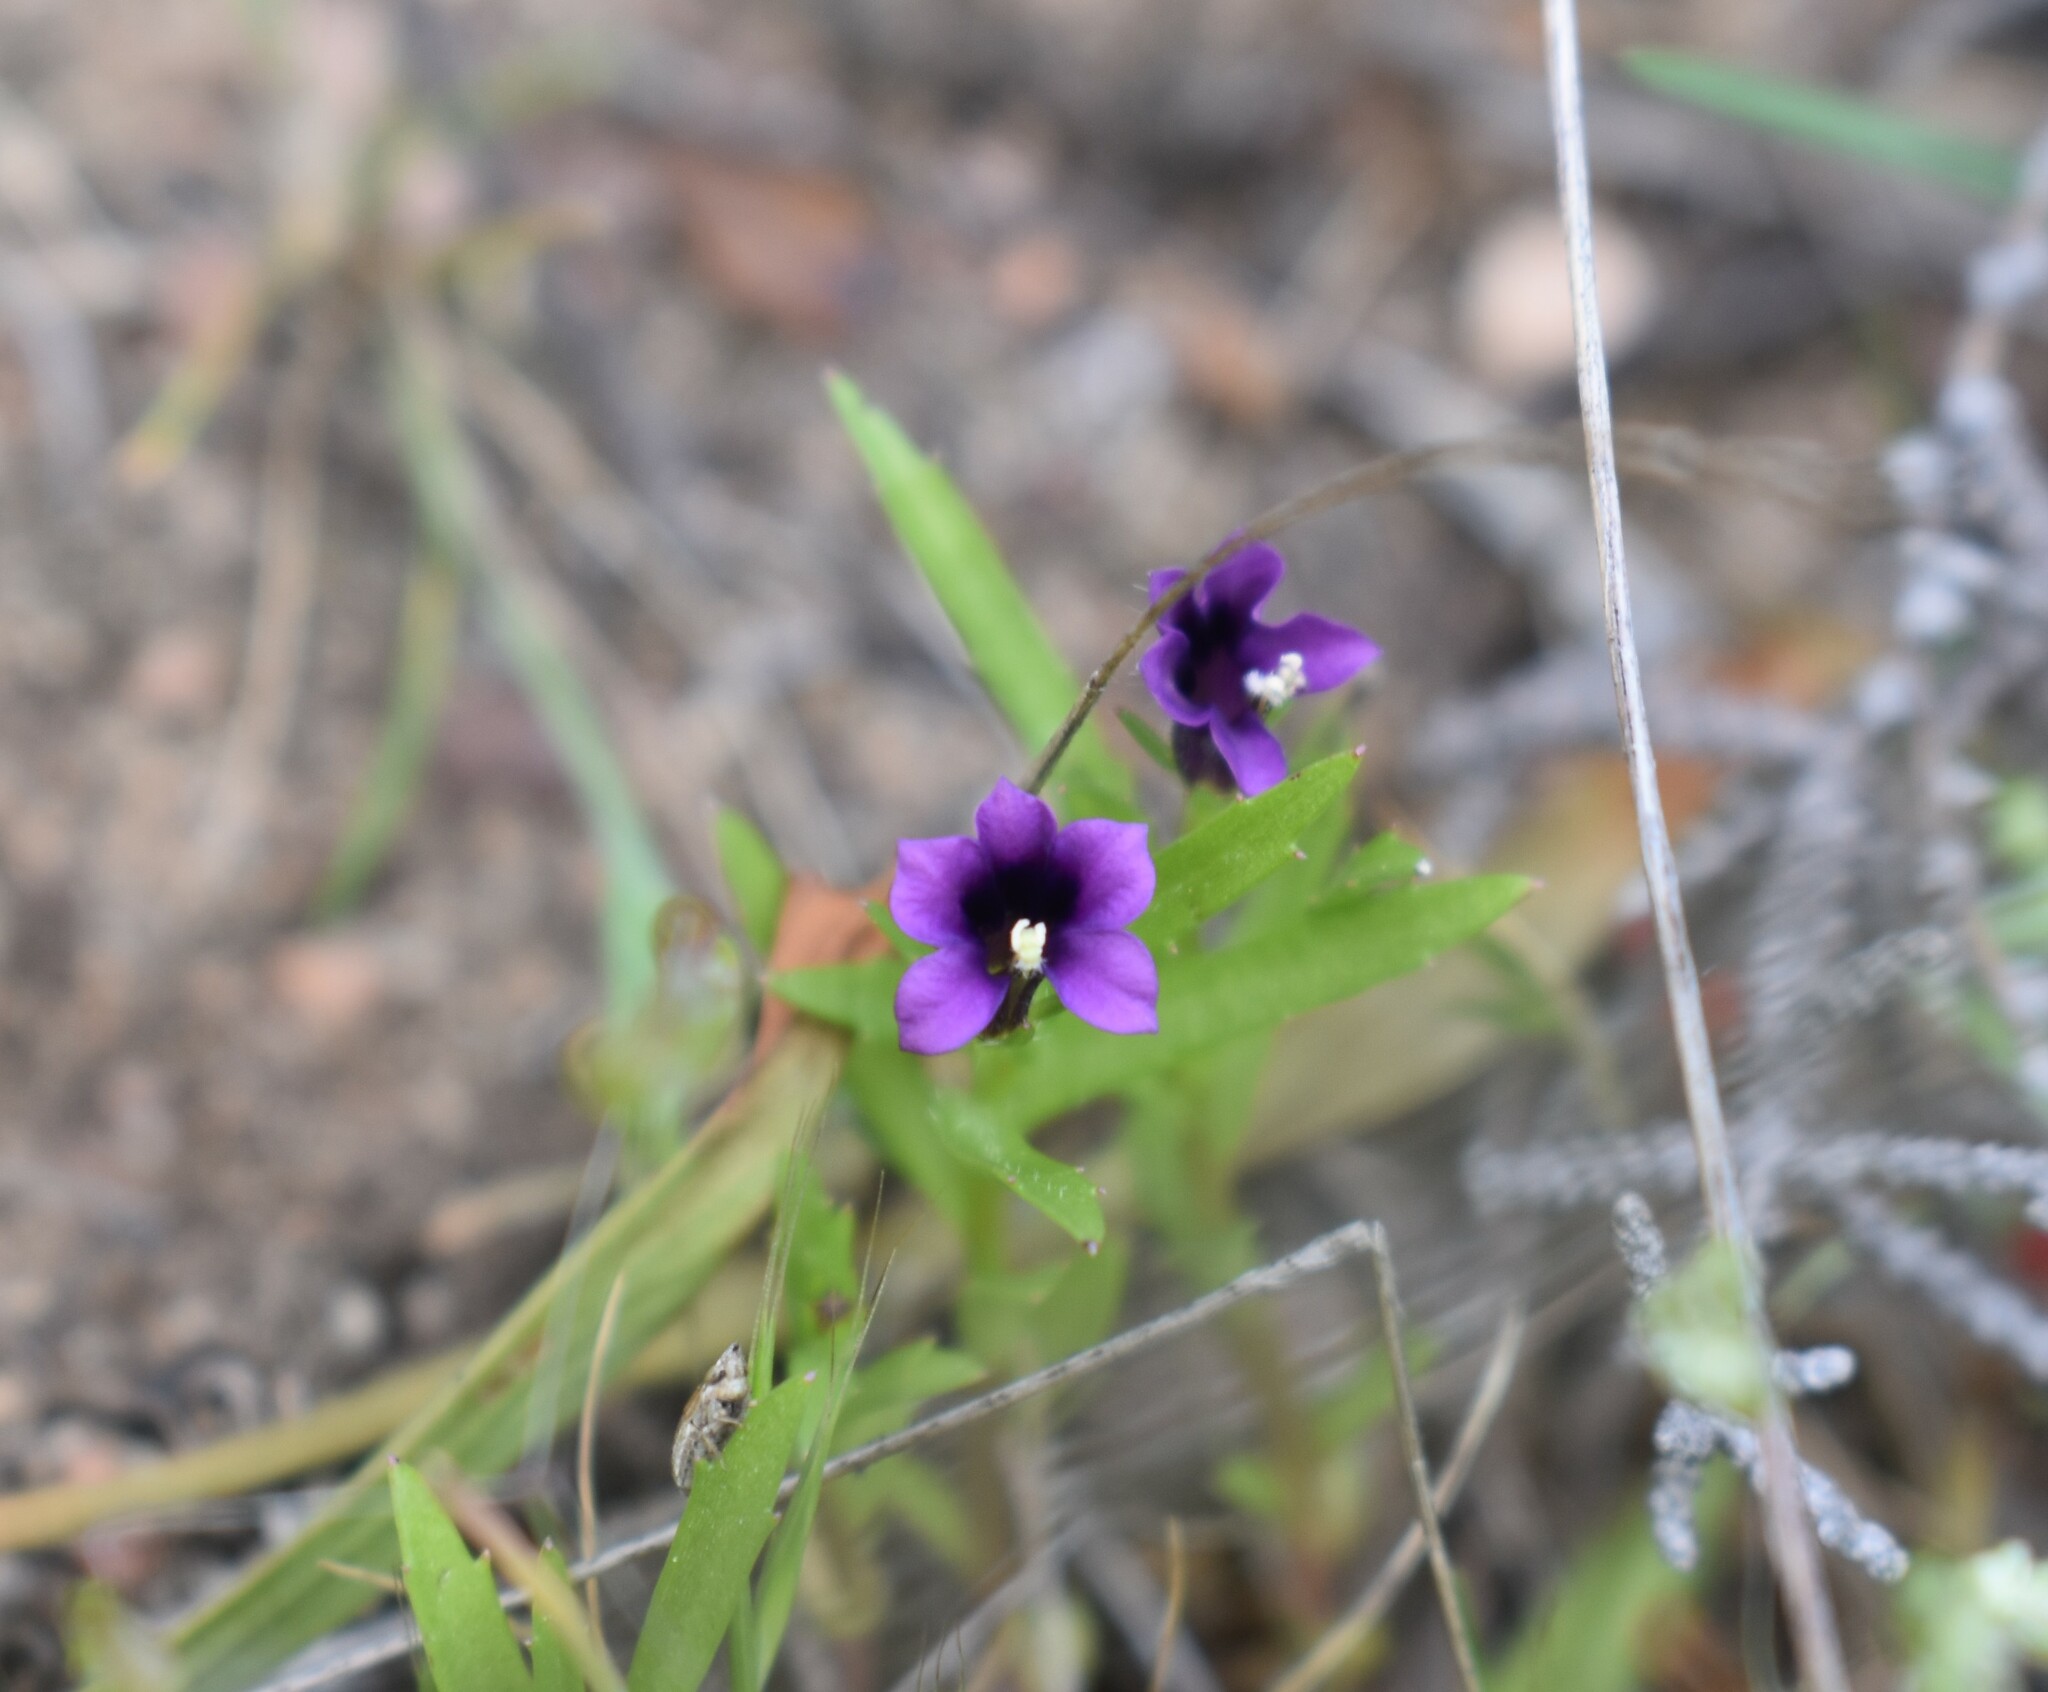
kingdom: Plantae
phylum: Tracheophyta
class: Magnoliopsida
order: Asterales
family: Campanulaceae
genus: Monopsis
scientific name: Monopsis debilis
